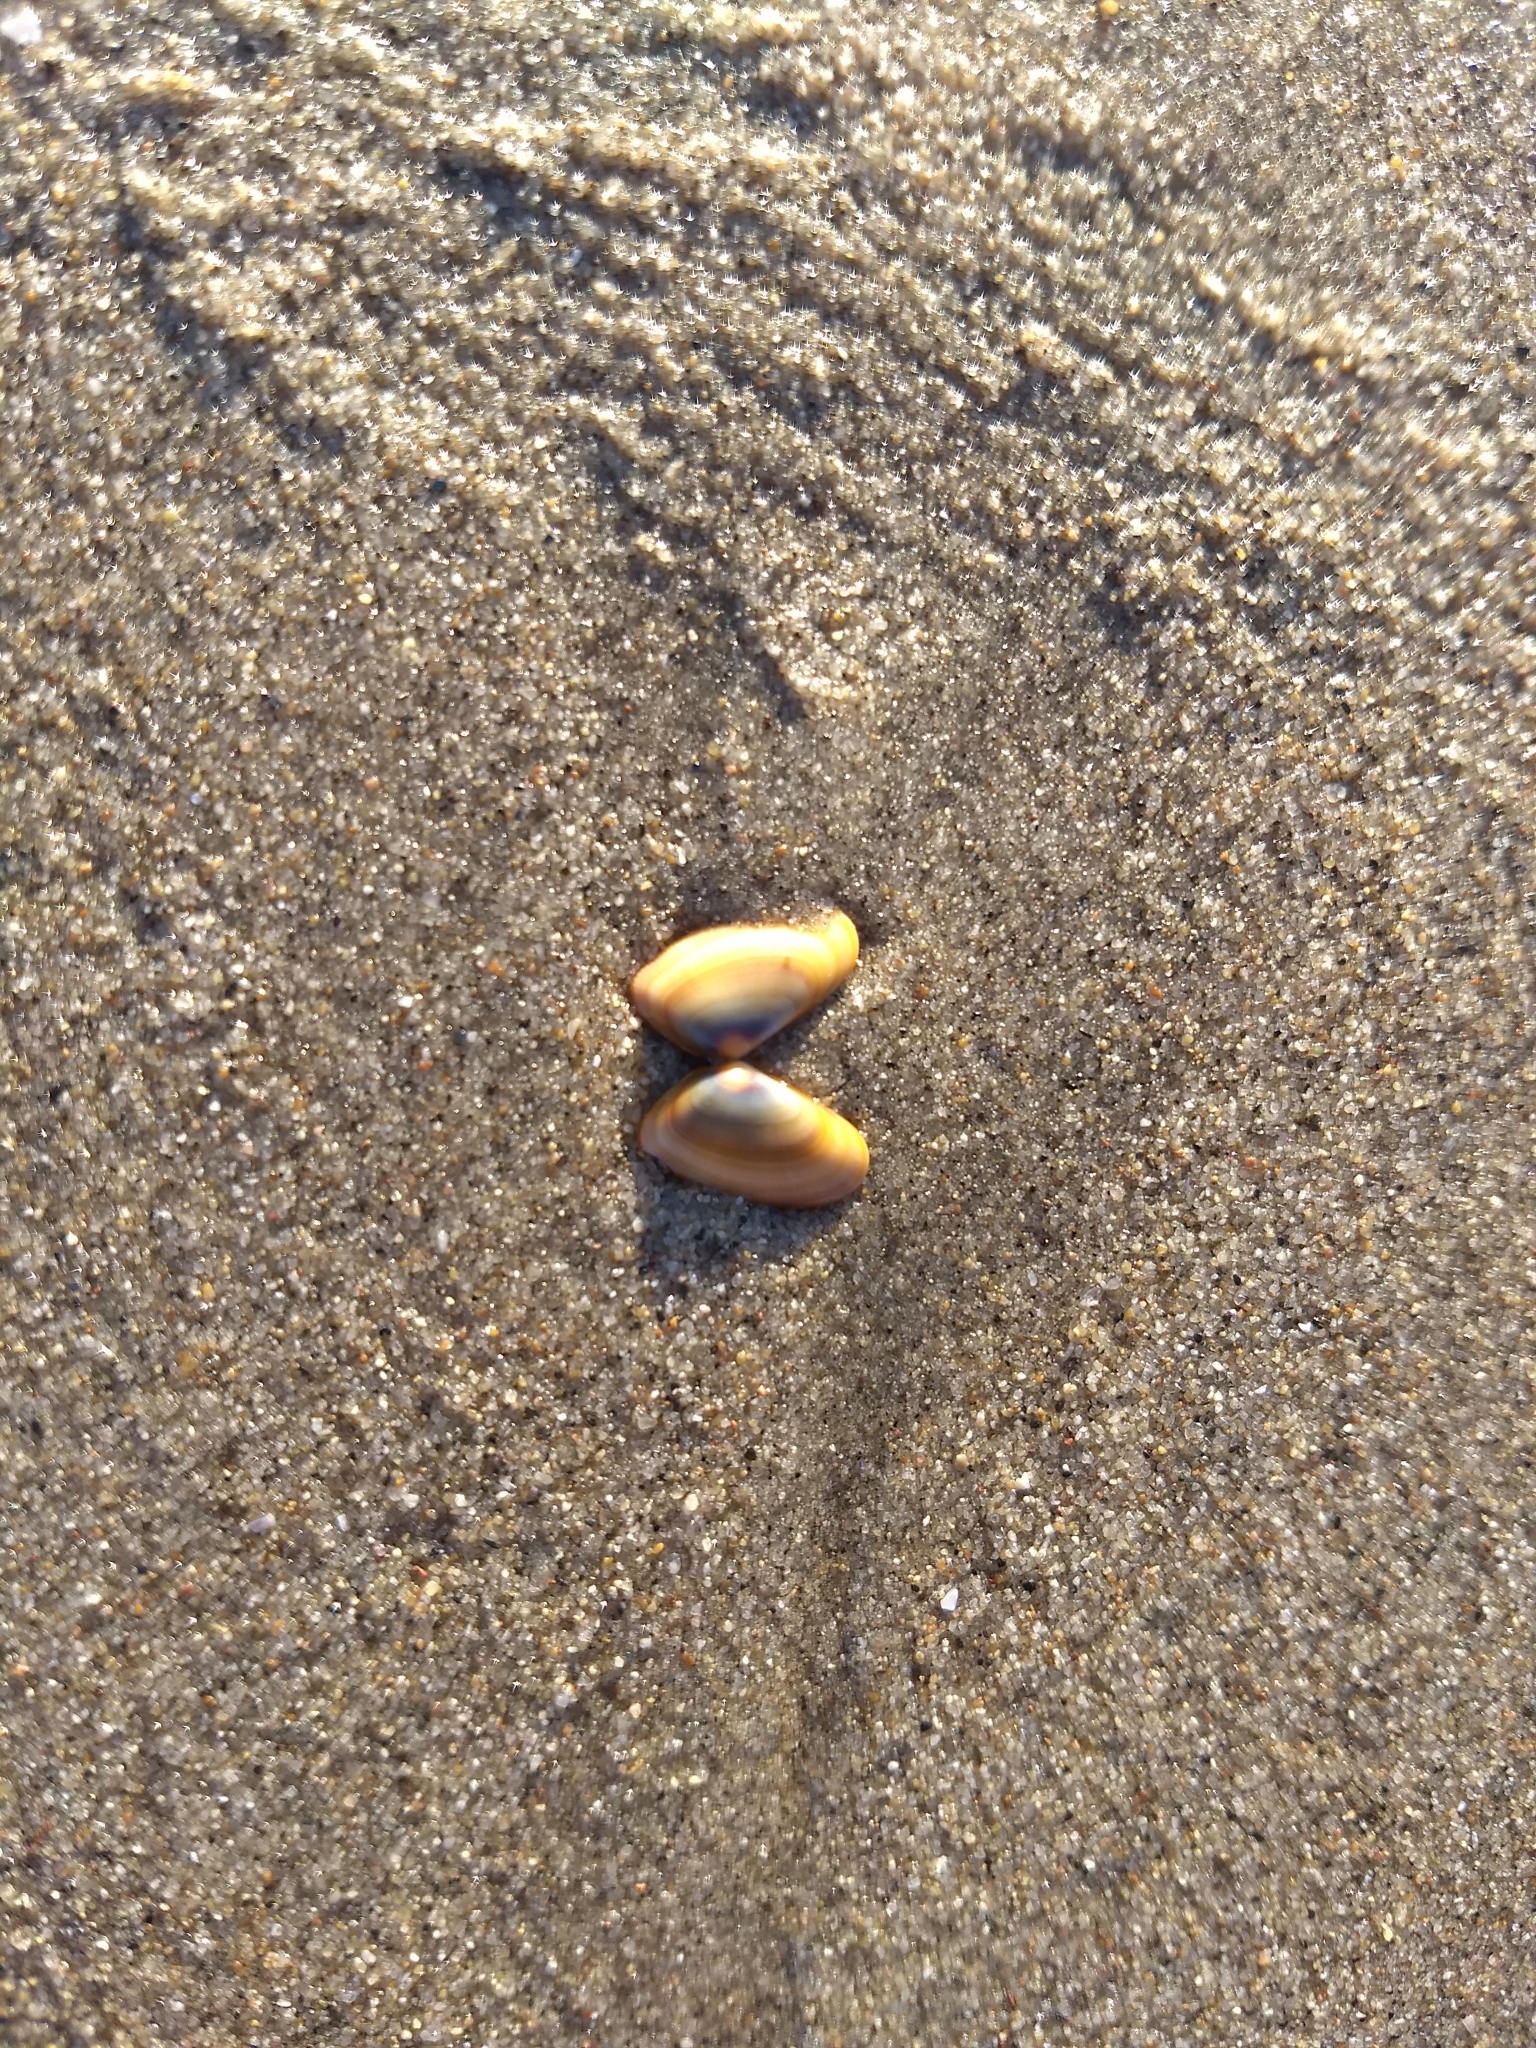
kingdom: Animalia
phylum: Mollusca
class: Bivalvia
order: Cardiida
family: Donacidae
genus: Donax
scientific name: Donax gouldii
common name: Gould beanclam
